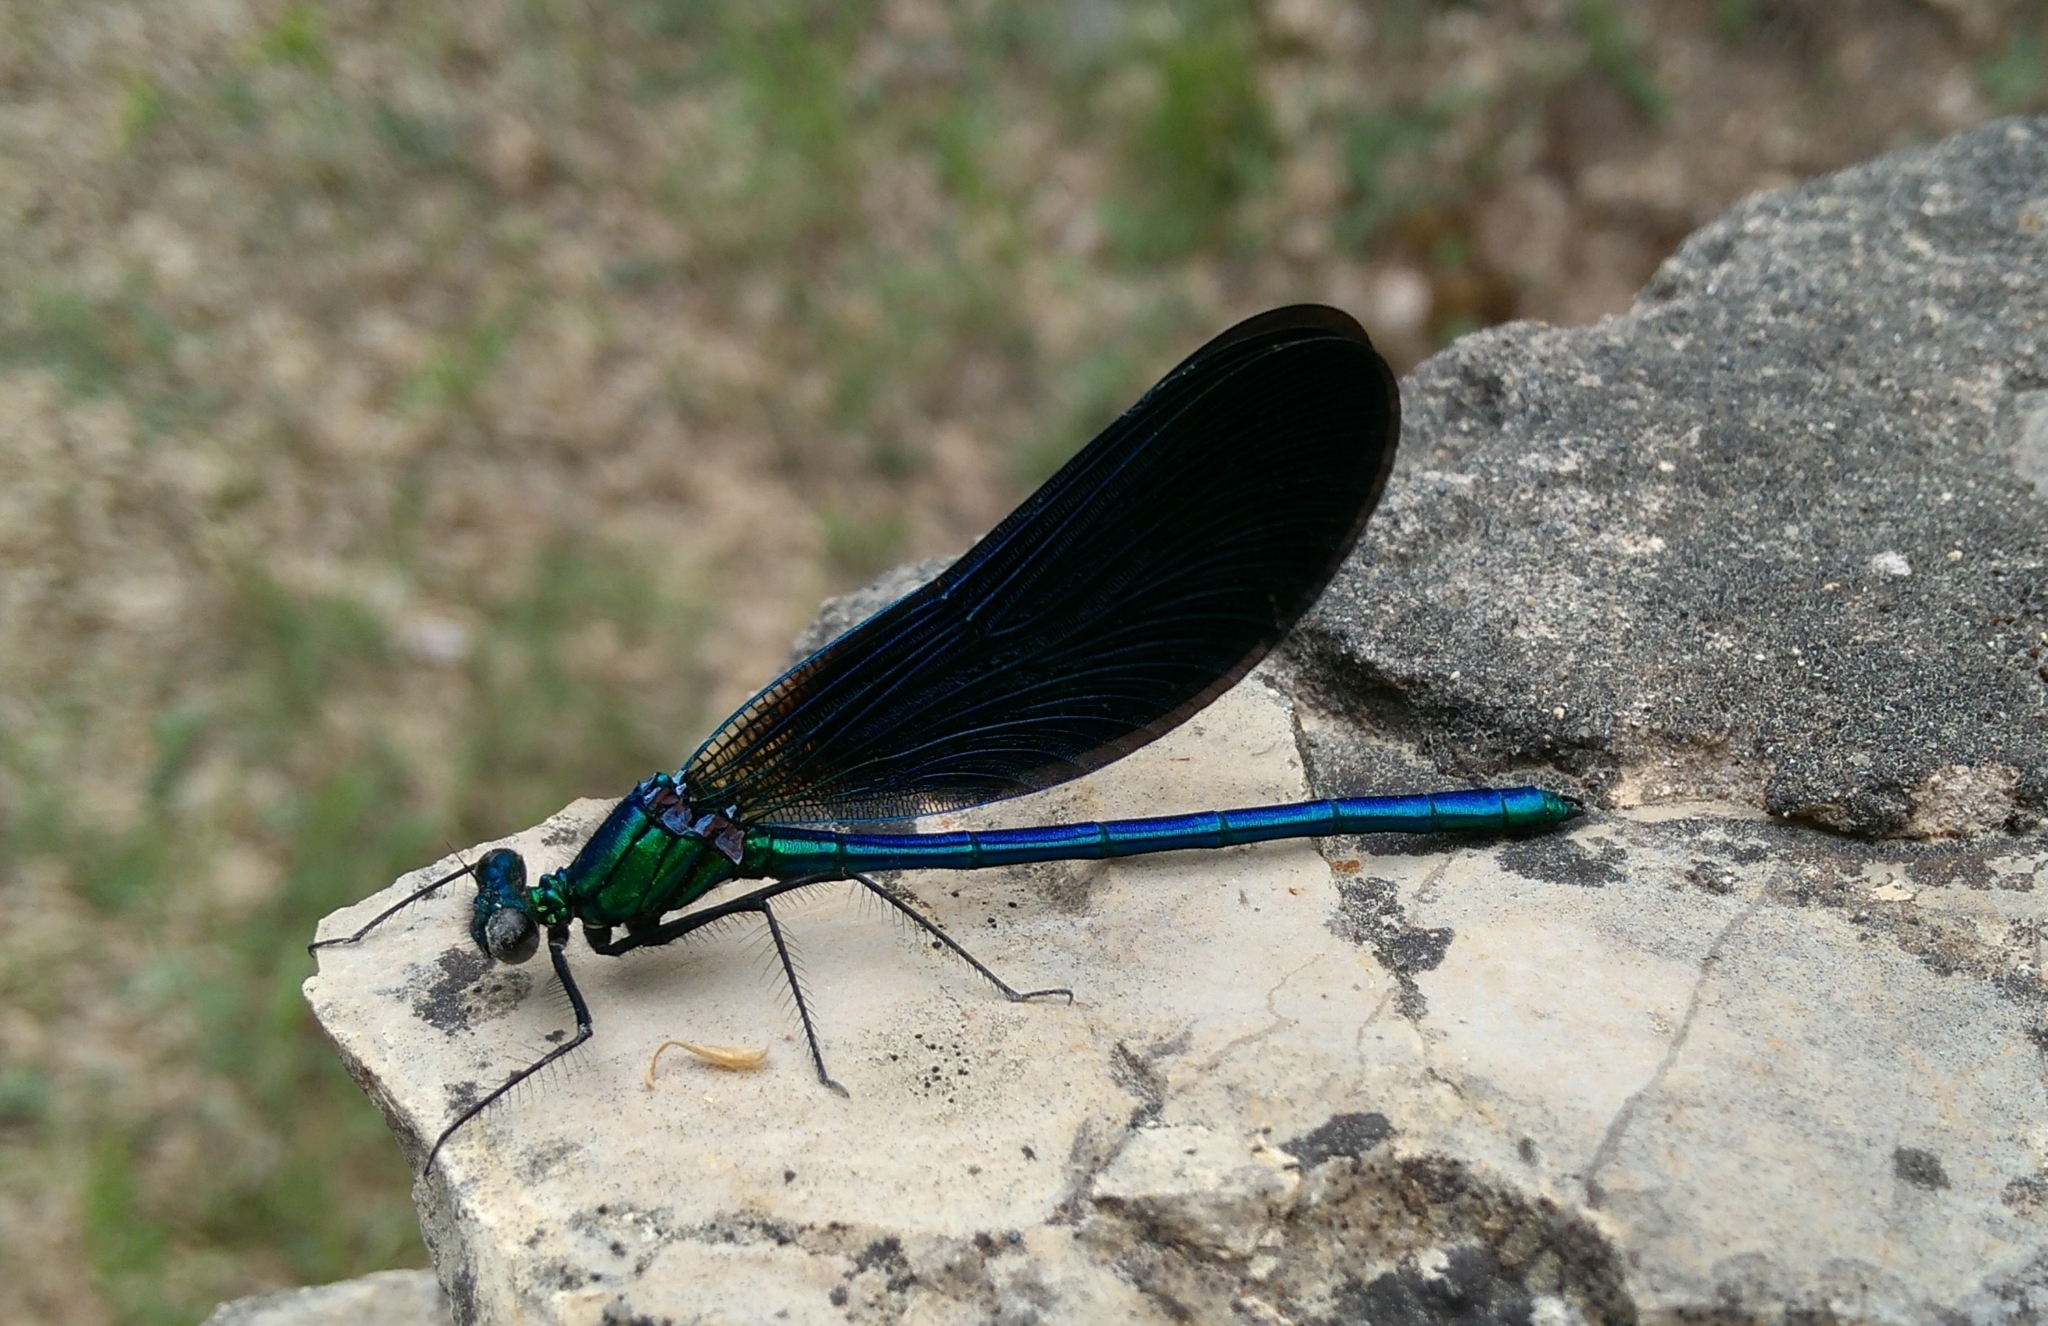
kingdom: Animalia
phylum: Arthropoda
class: Insecta
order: Odonata
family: Calopterygidae
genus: Calopteryx
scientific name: Calopteryx virgo
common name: Beautiful demoiselle
